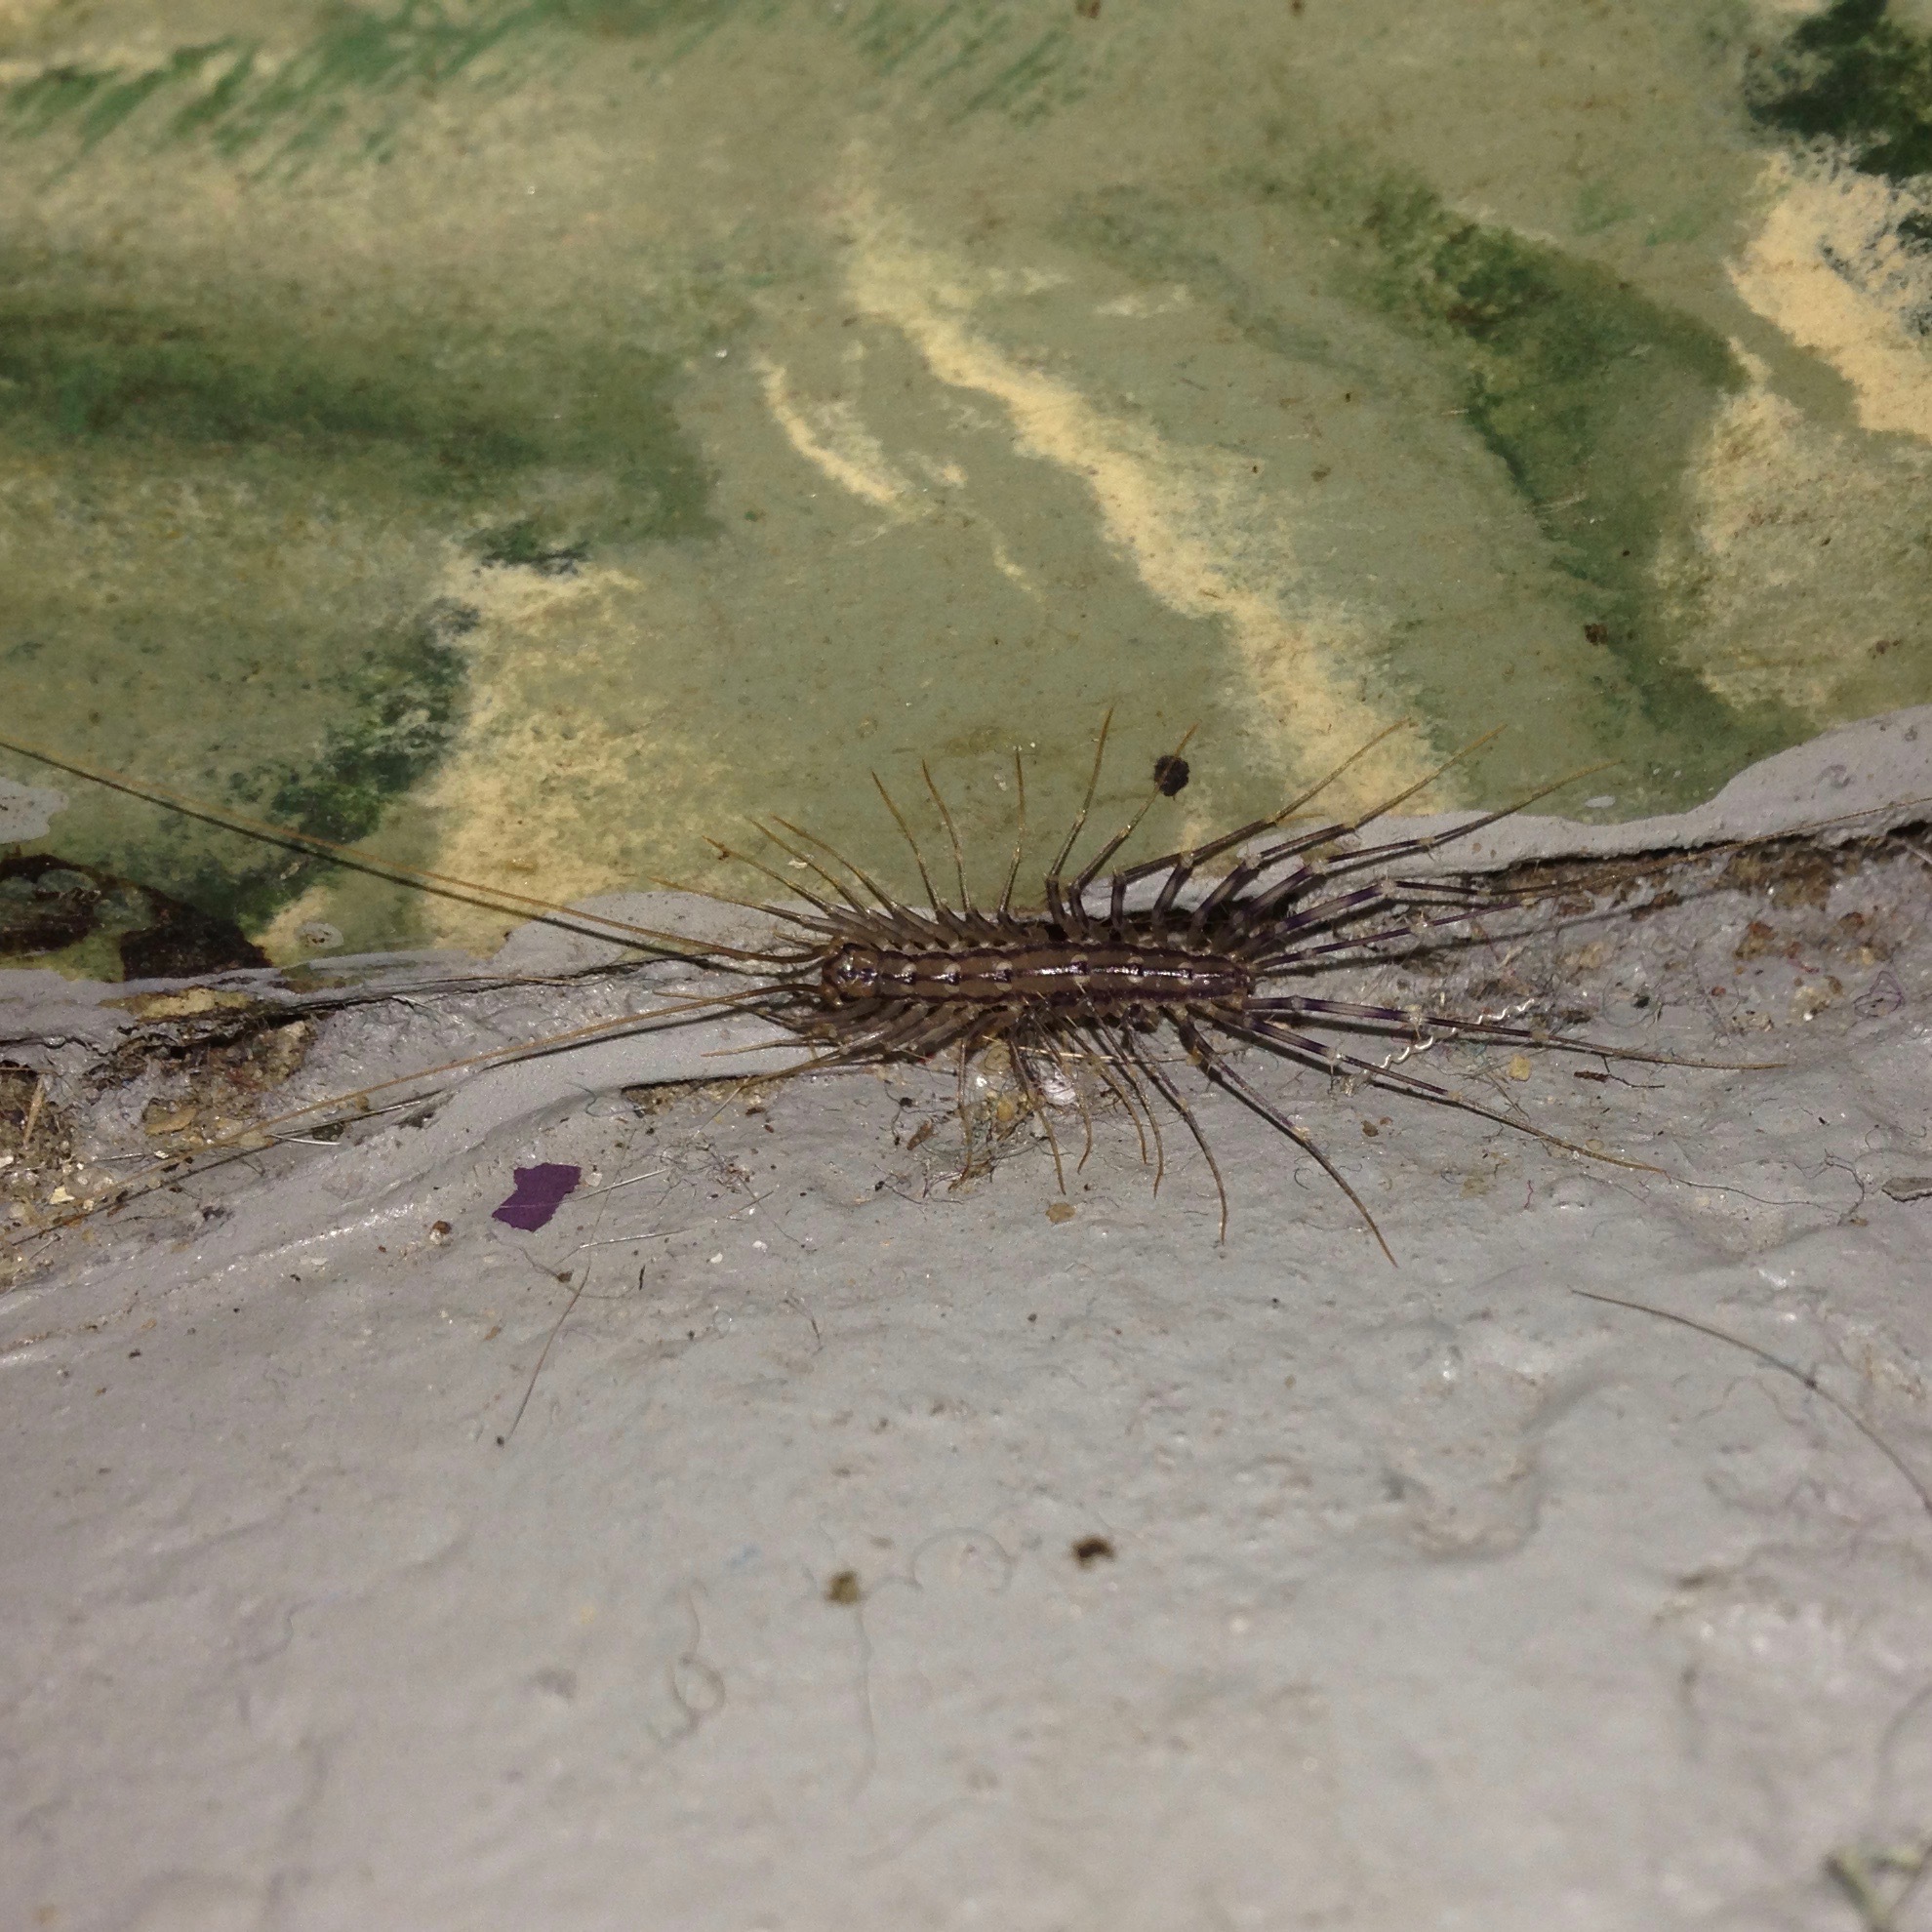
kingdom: Animalia
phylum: Arthropoda
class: Chilopoda
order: Scutigeromorpha
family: Scutigeridae
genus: Scutigera
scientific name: Scutigera coleoptrata
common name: House centipede
